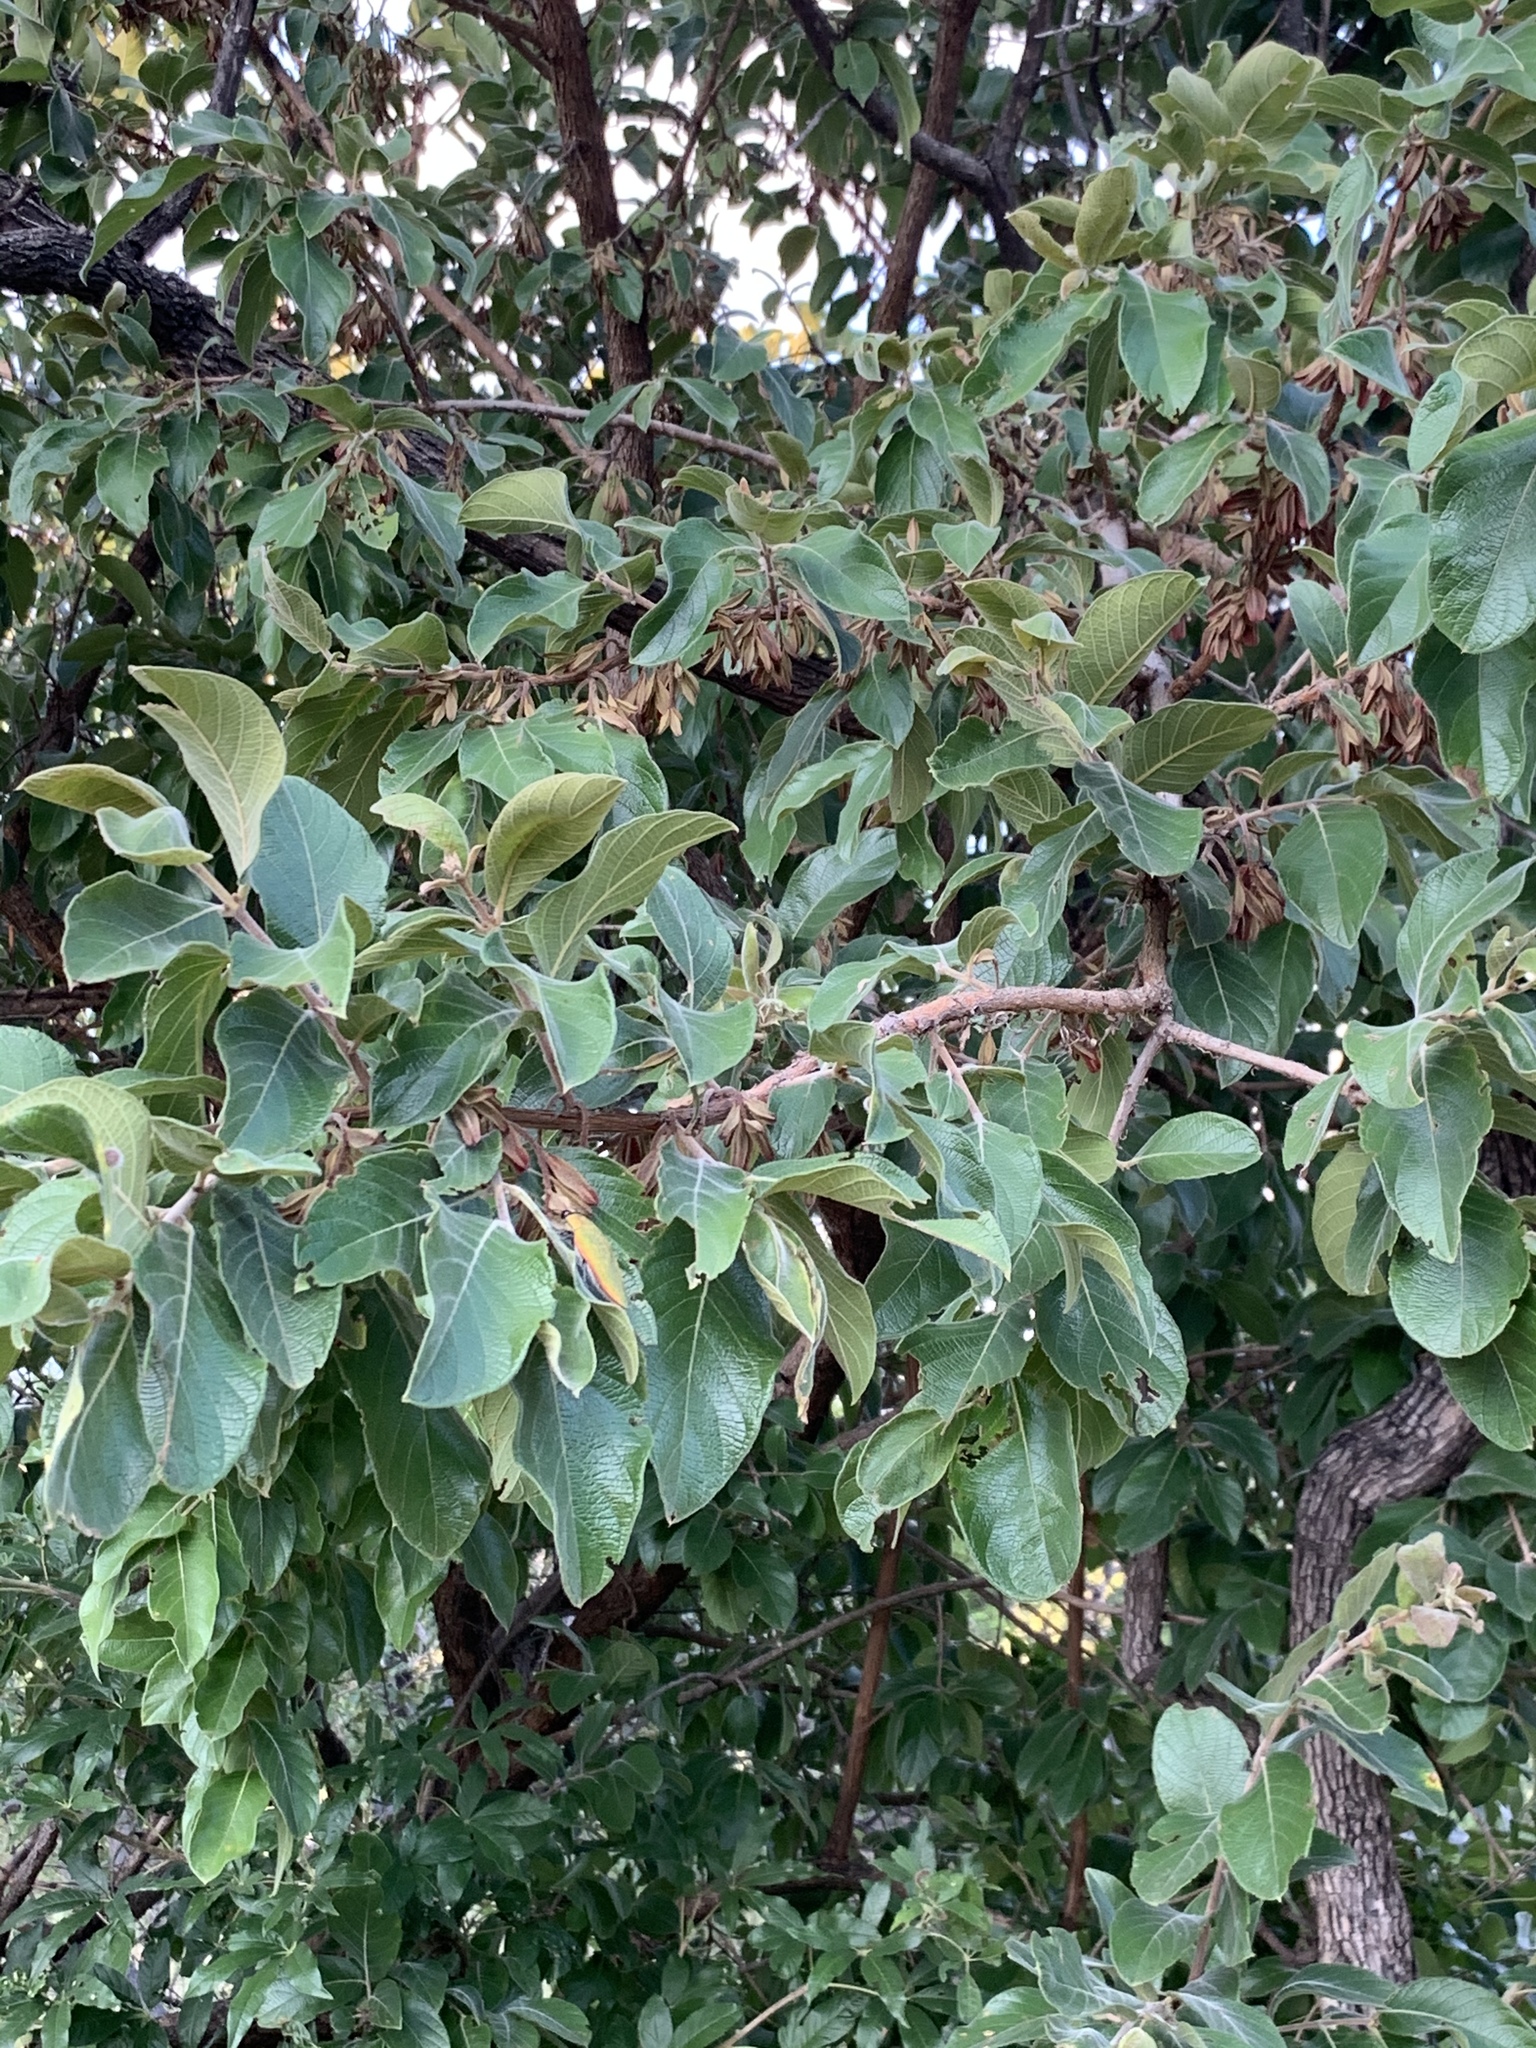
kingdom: Plantae
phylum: Tracheophyta
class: Magnoliopsida
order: Myrtales
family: Combretaceae
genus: Combretum
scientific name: Combretum molle
